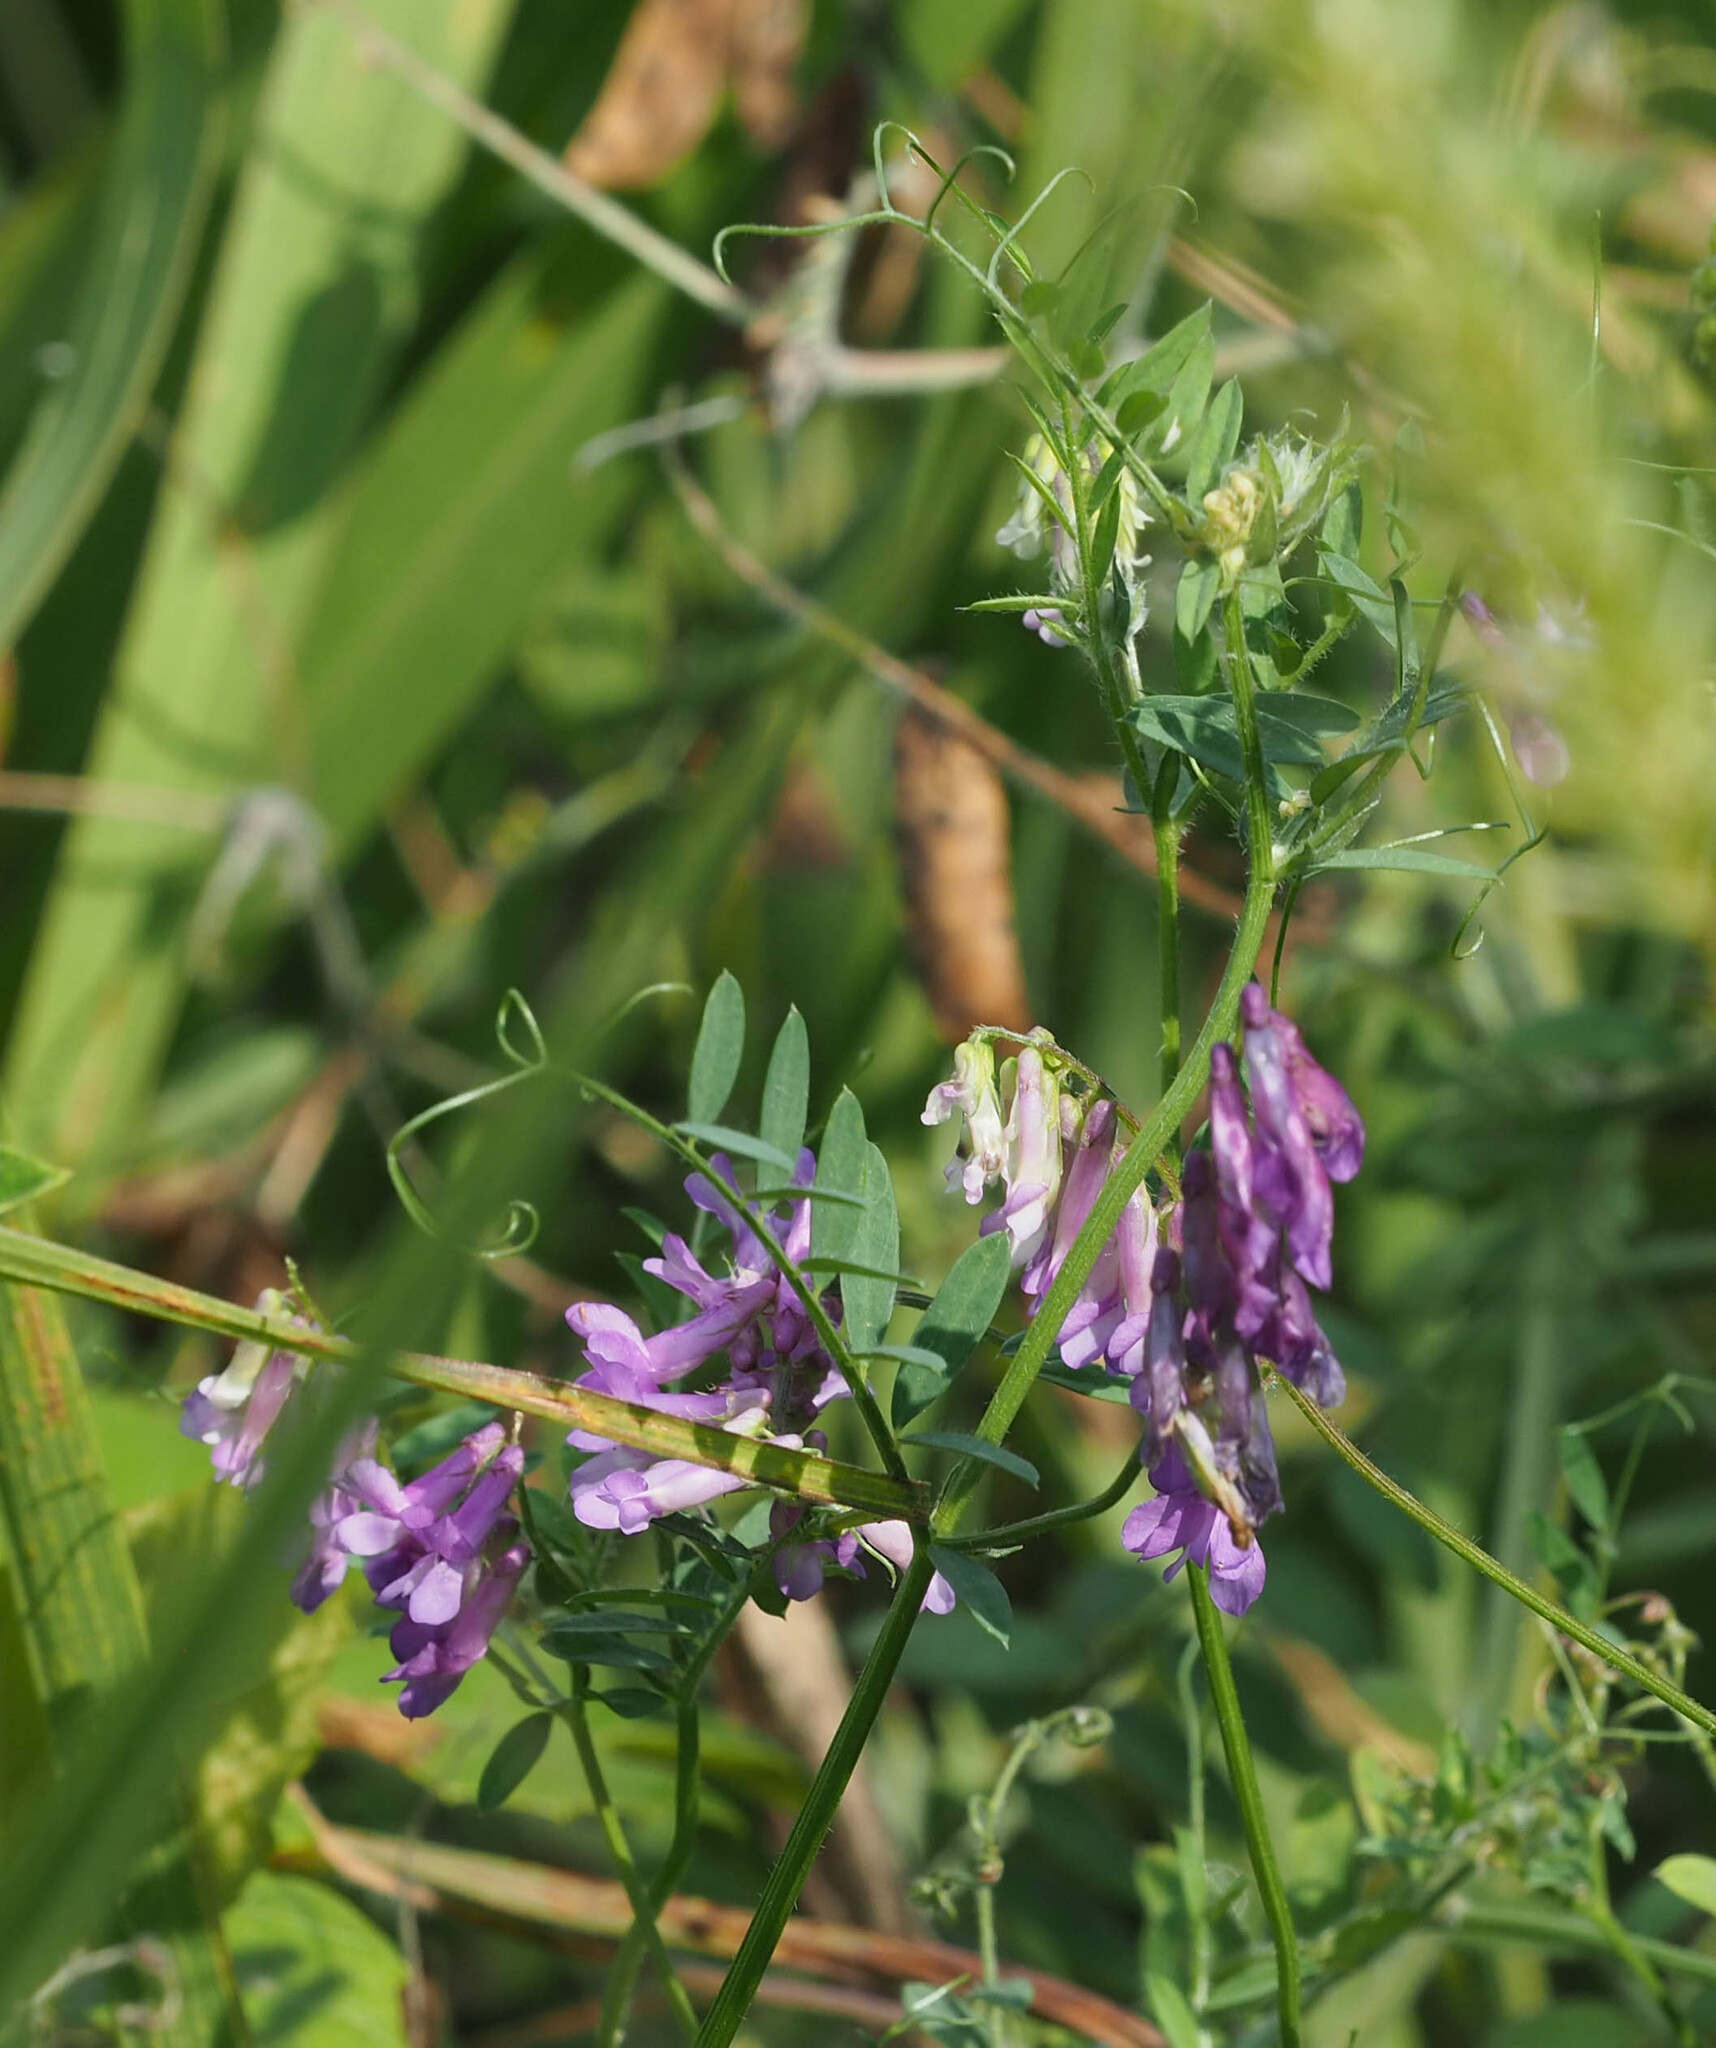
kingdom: Plantae
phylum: Tracheophyta
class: Magnoliopsida
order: Fabales
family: Fabaceae
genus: Vicia
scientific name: Vicia villosa
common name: Fodder vetch
